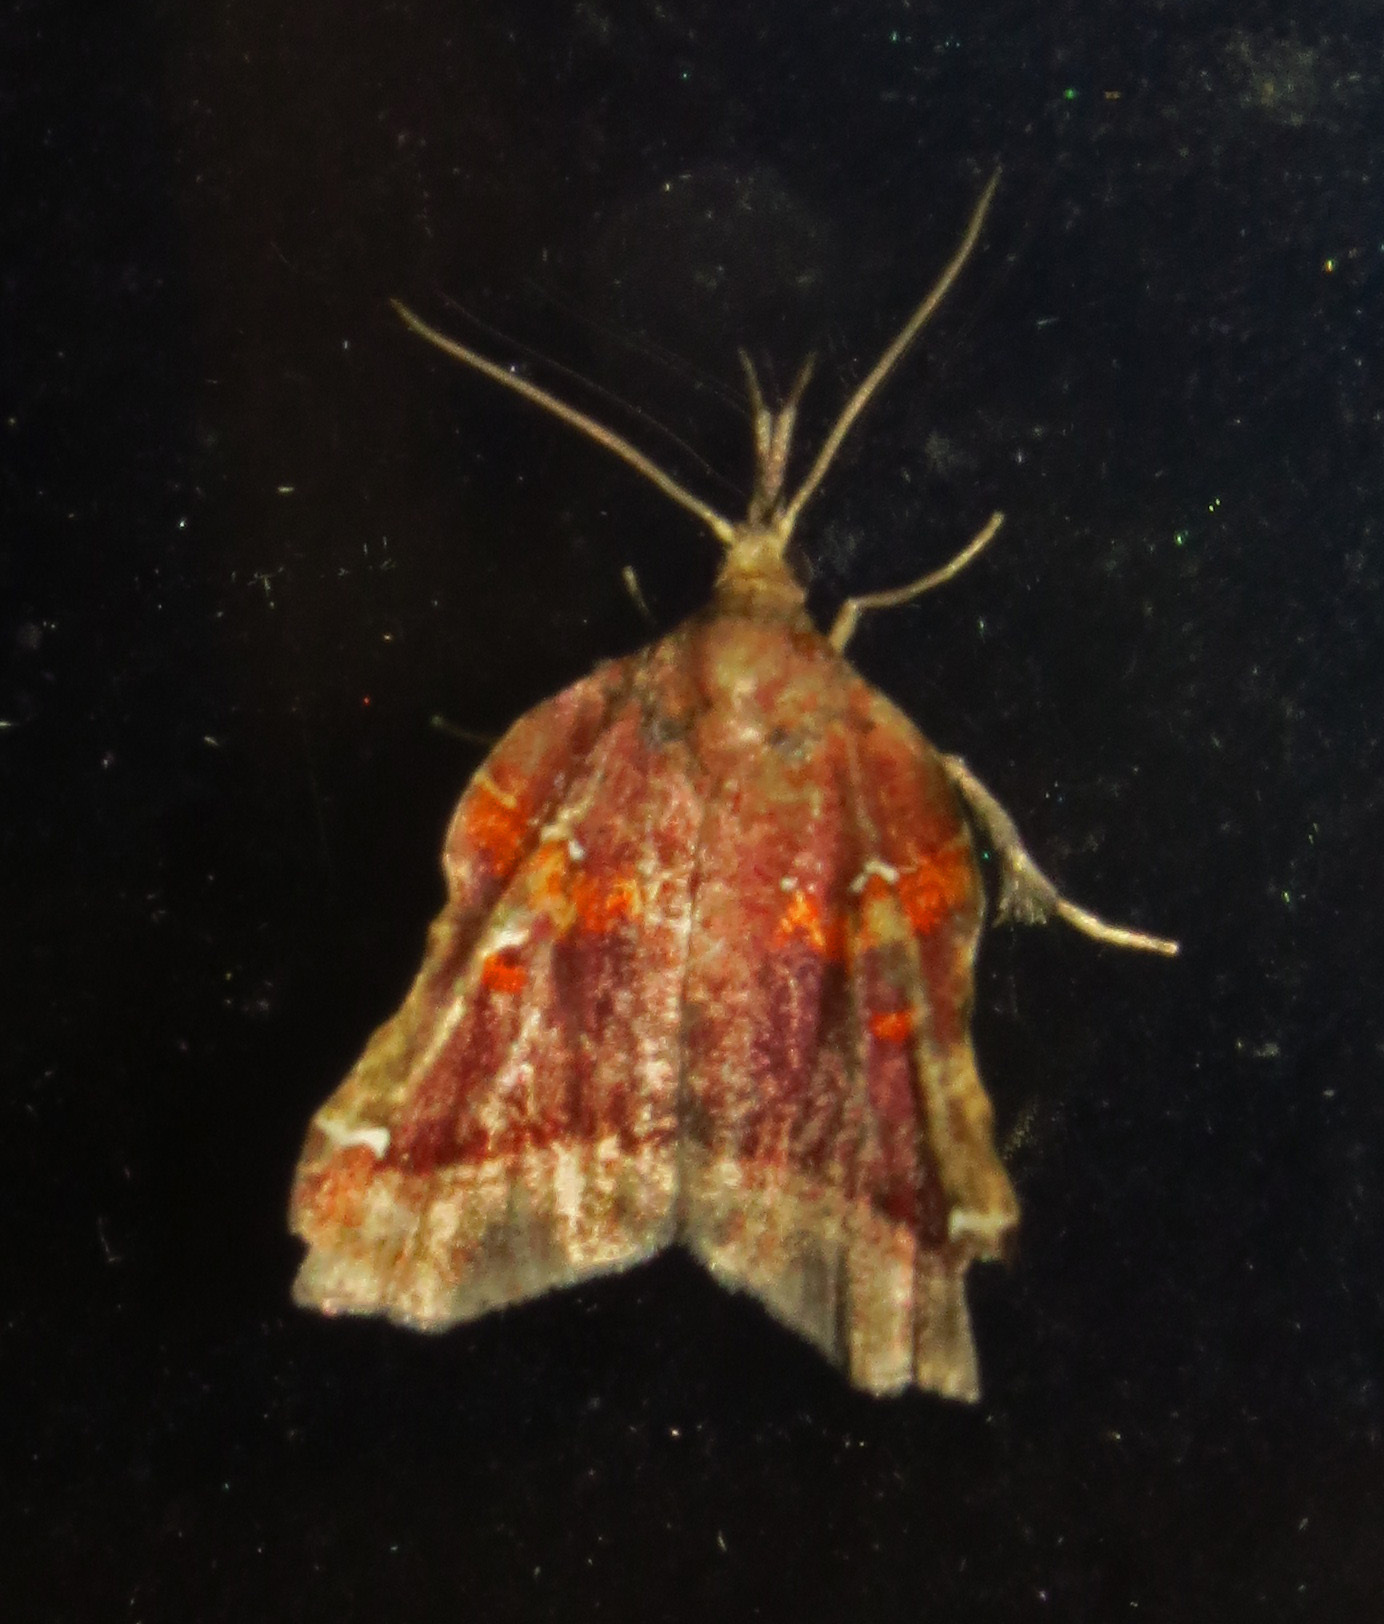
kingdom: Animalia
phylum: Arthropoda
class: Insecta
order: Lepidoptera
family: Pyralidae
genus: Clydonopteron
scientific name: Clydonopteron sacculana
